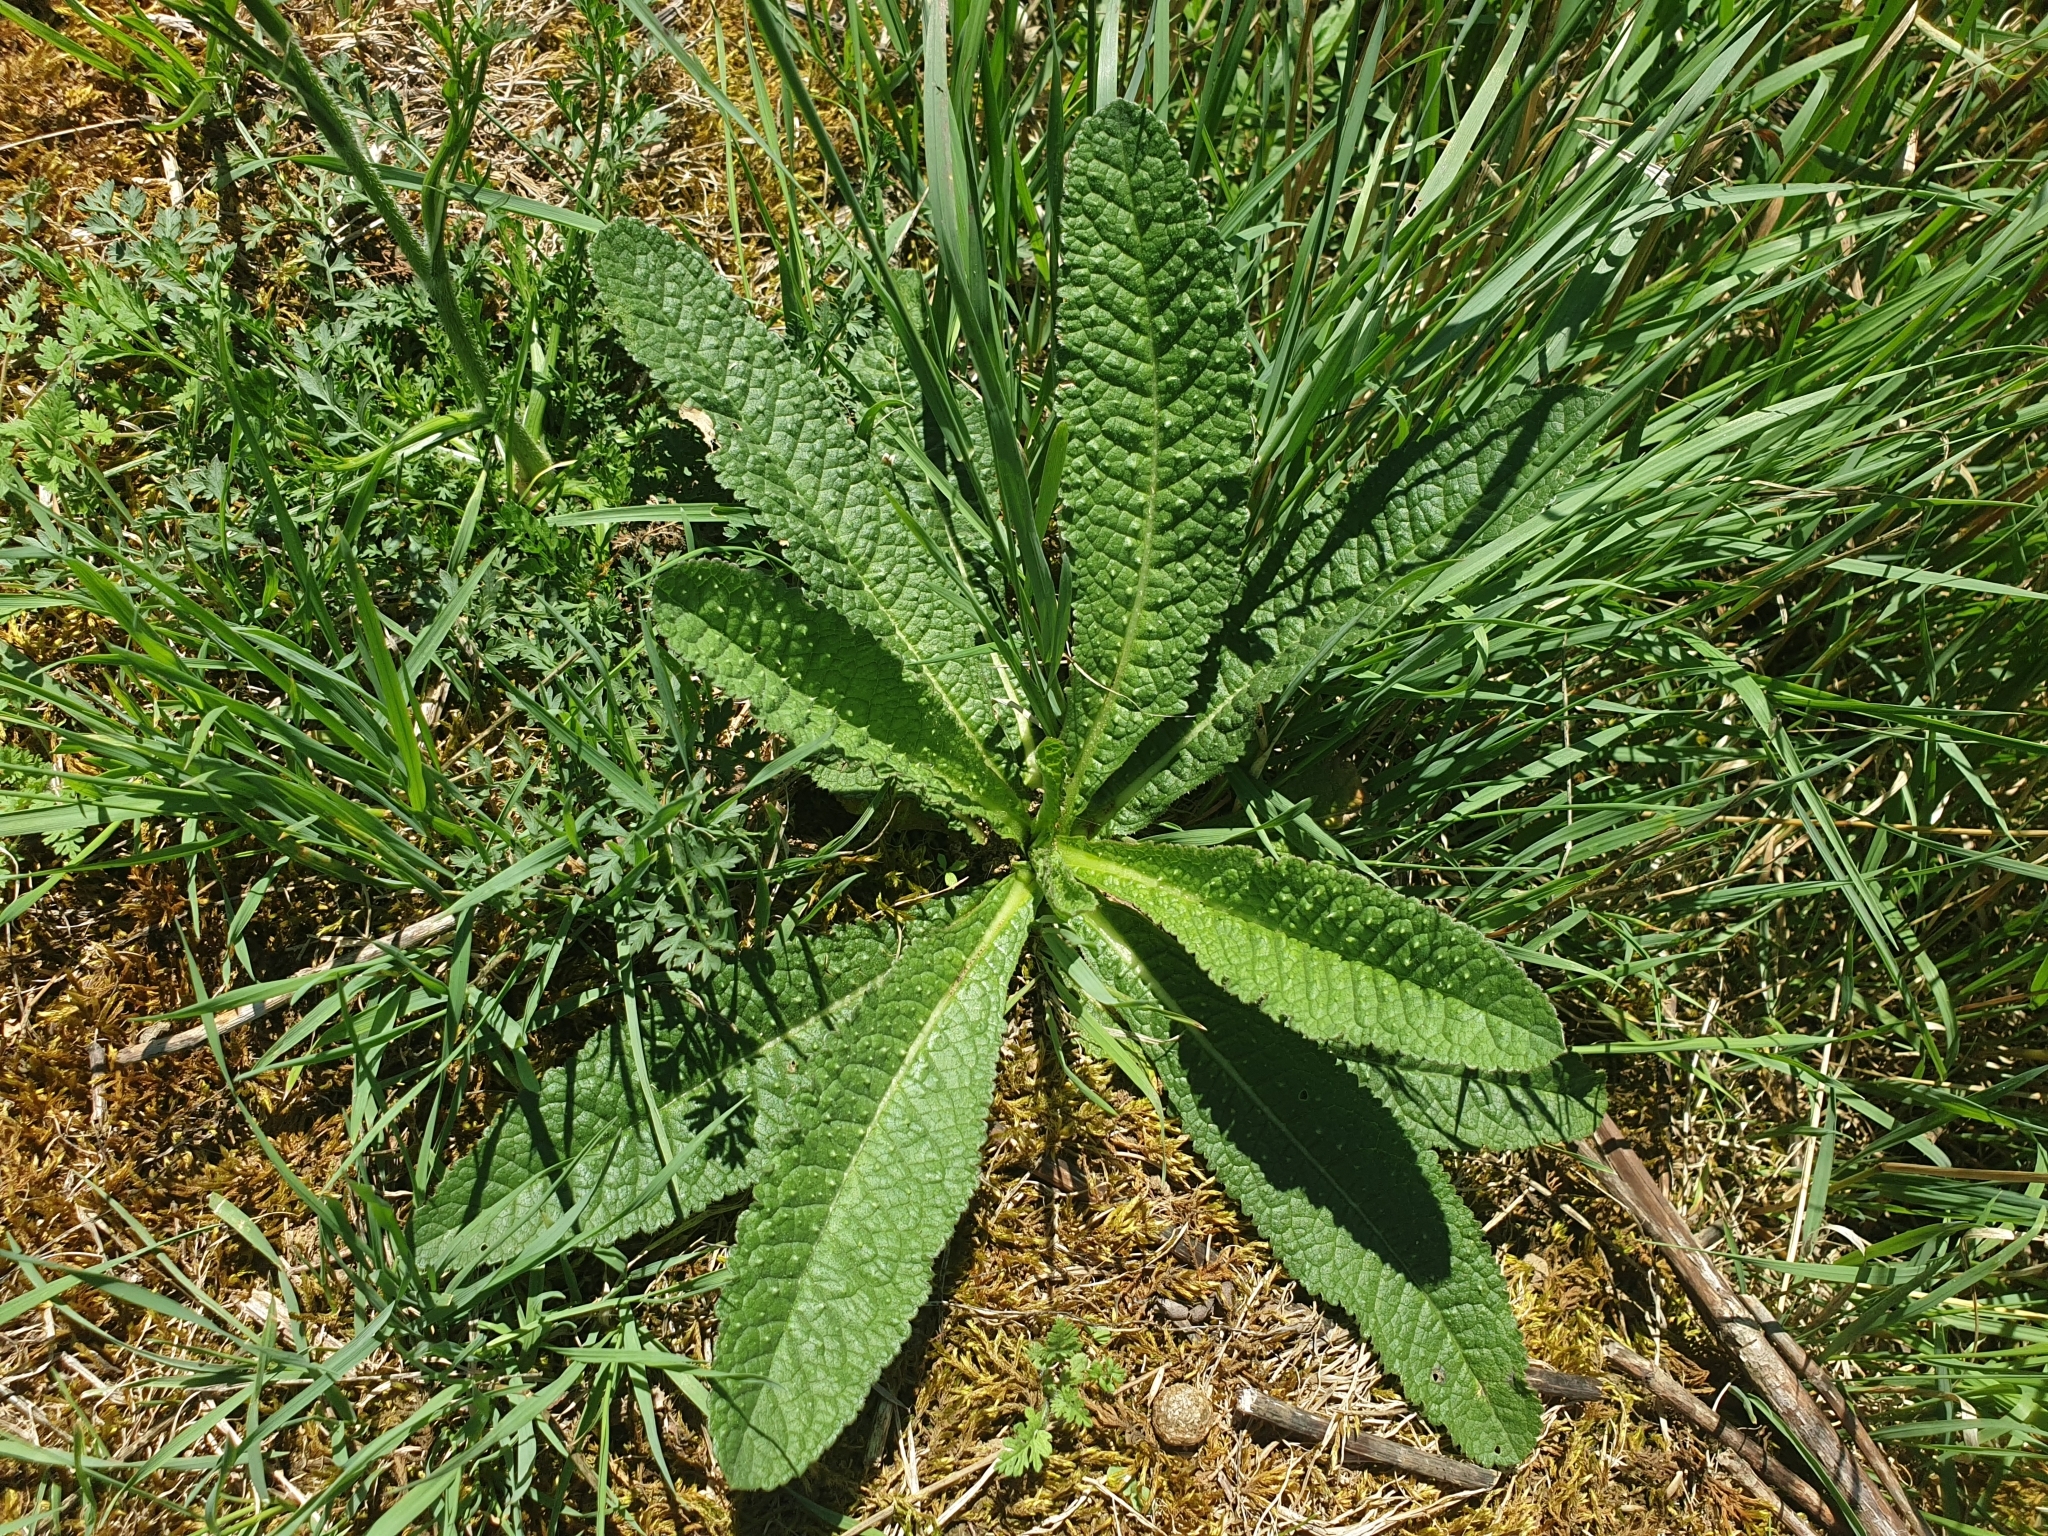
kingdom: Plantae
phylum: Tracheophyta
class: Magnoliopsida
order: Dipsacales
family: Caprifoliaceae
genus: Dipsacus
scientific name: Dipsacus fullonum
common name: Teasel
